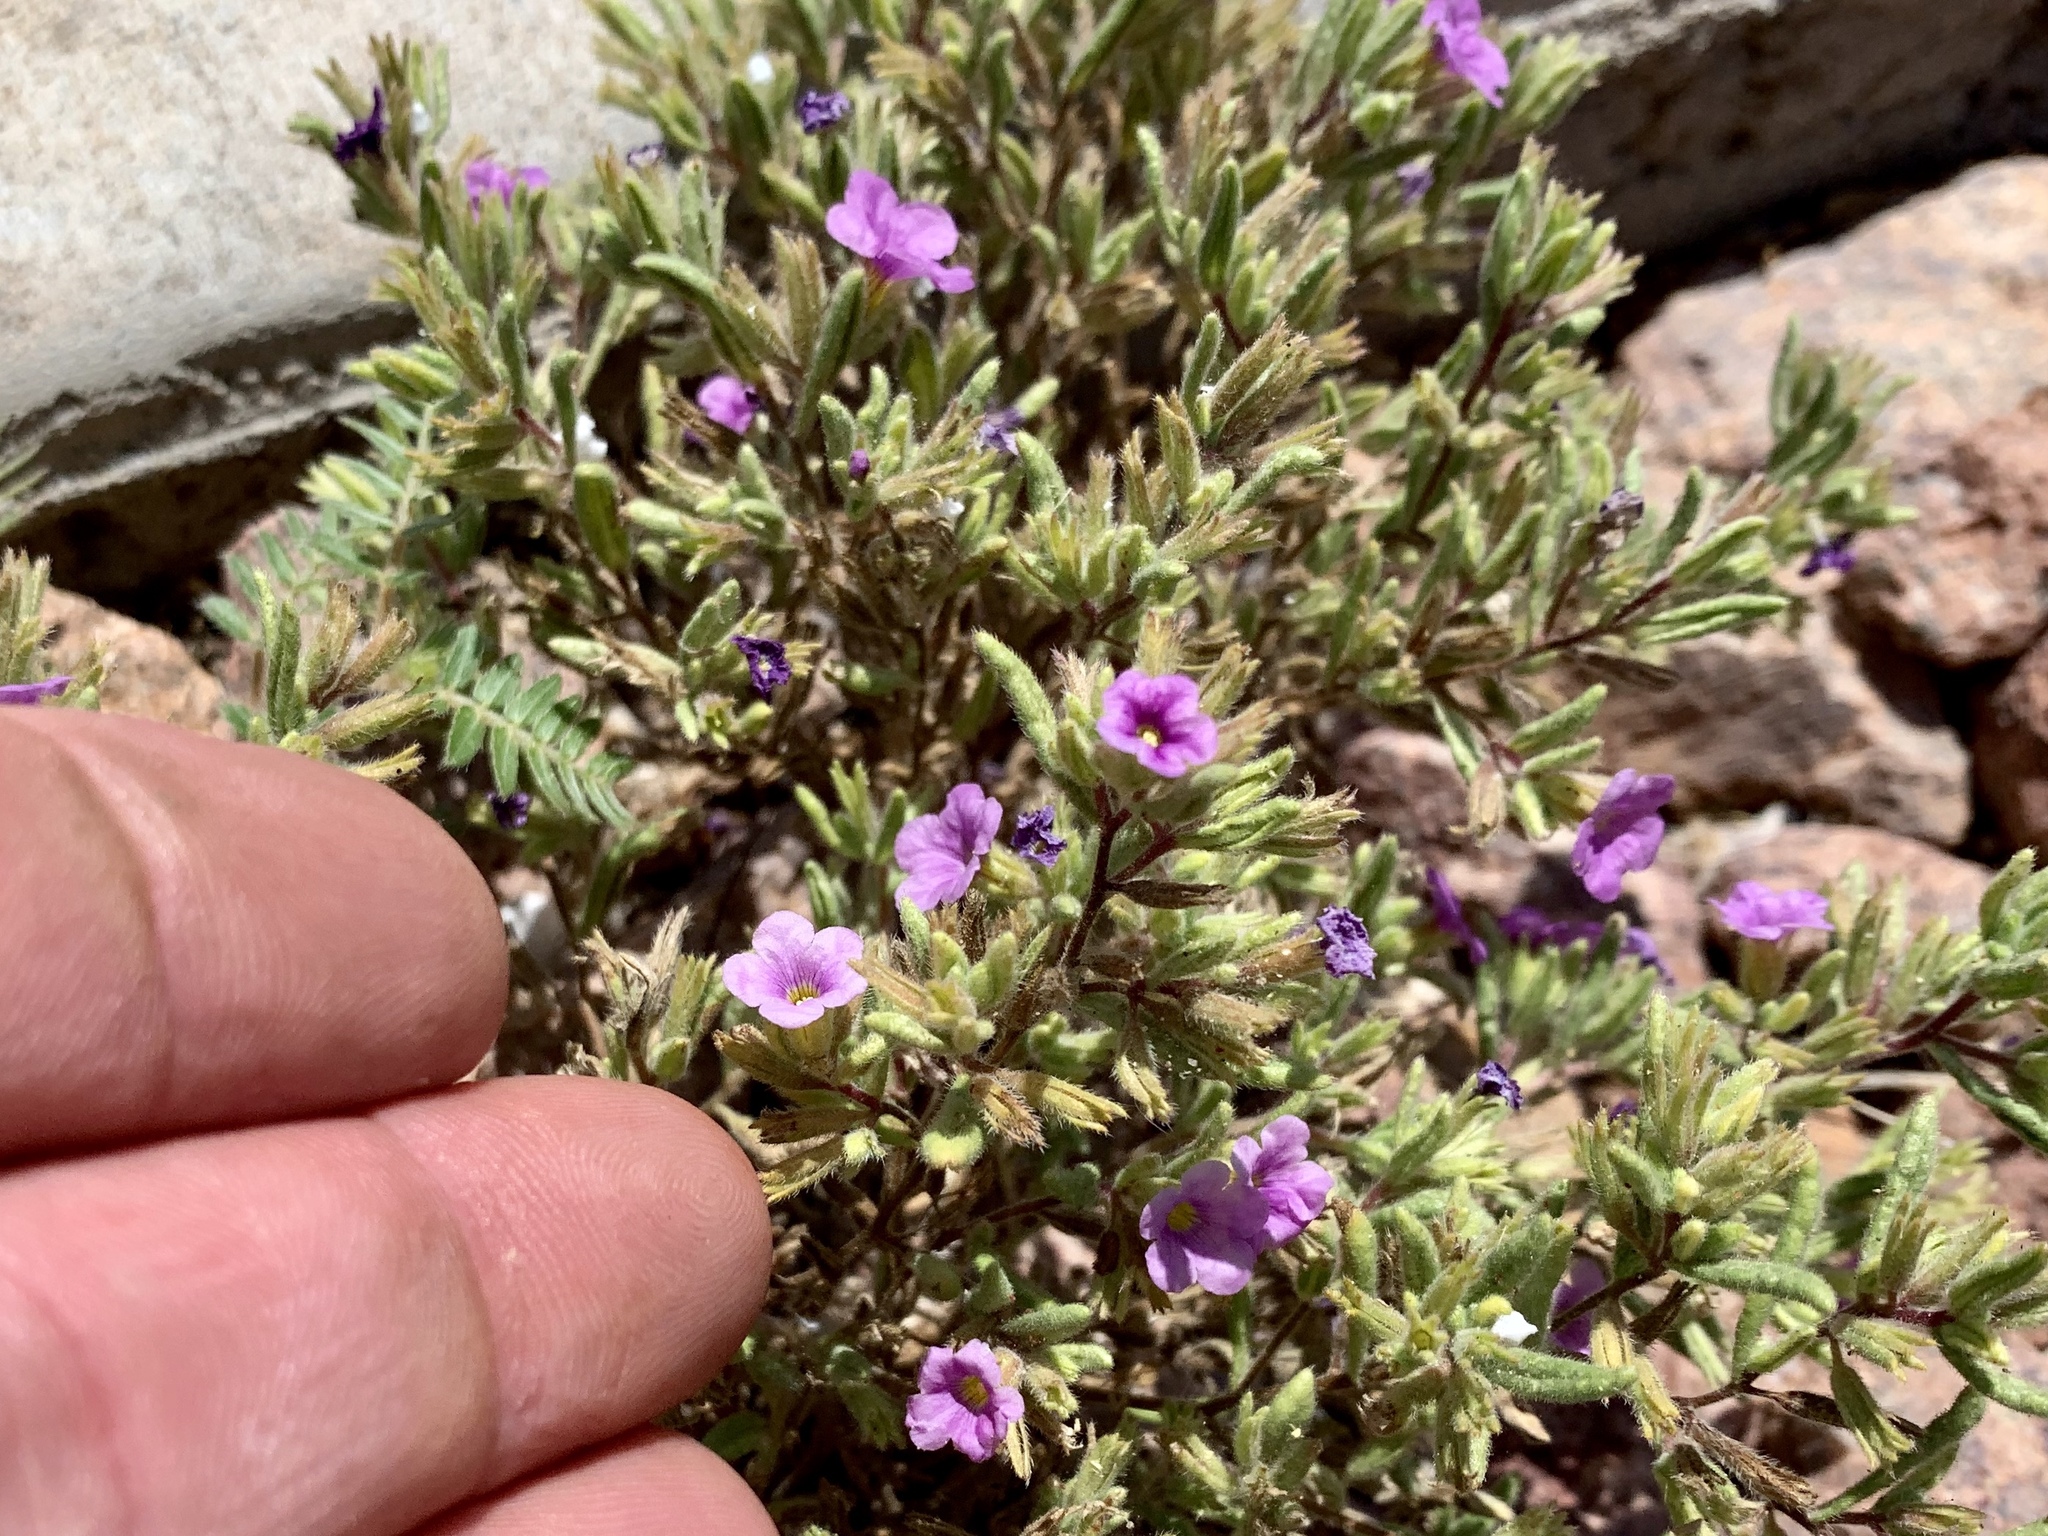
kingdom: Plantae
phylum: Tracheophyta
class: Magnoliopsida
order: Boraginales
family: Namaceae
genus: Nama
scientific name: Nama hispida
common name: Bristly nama
